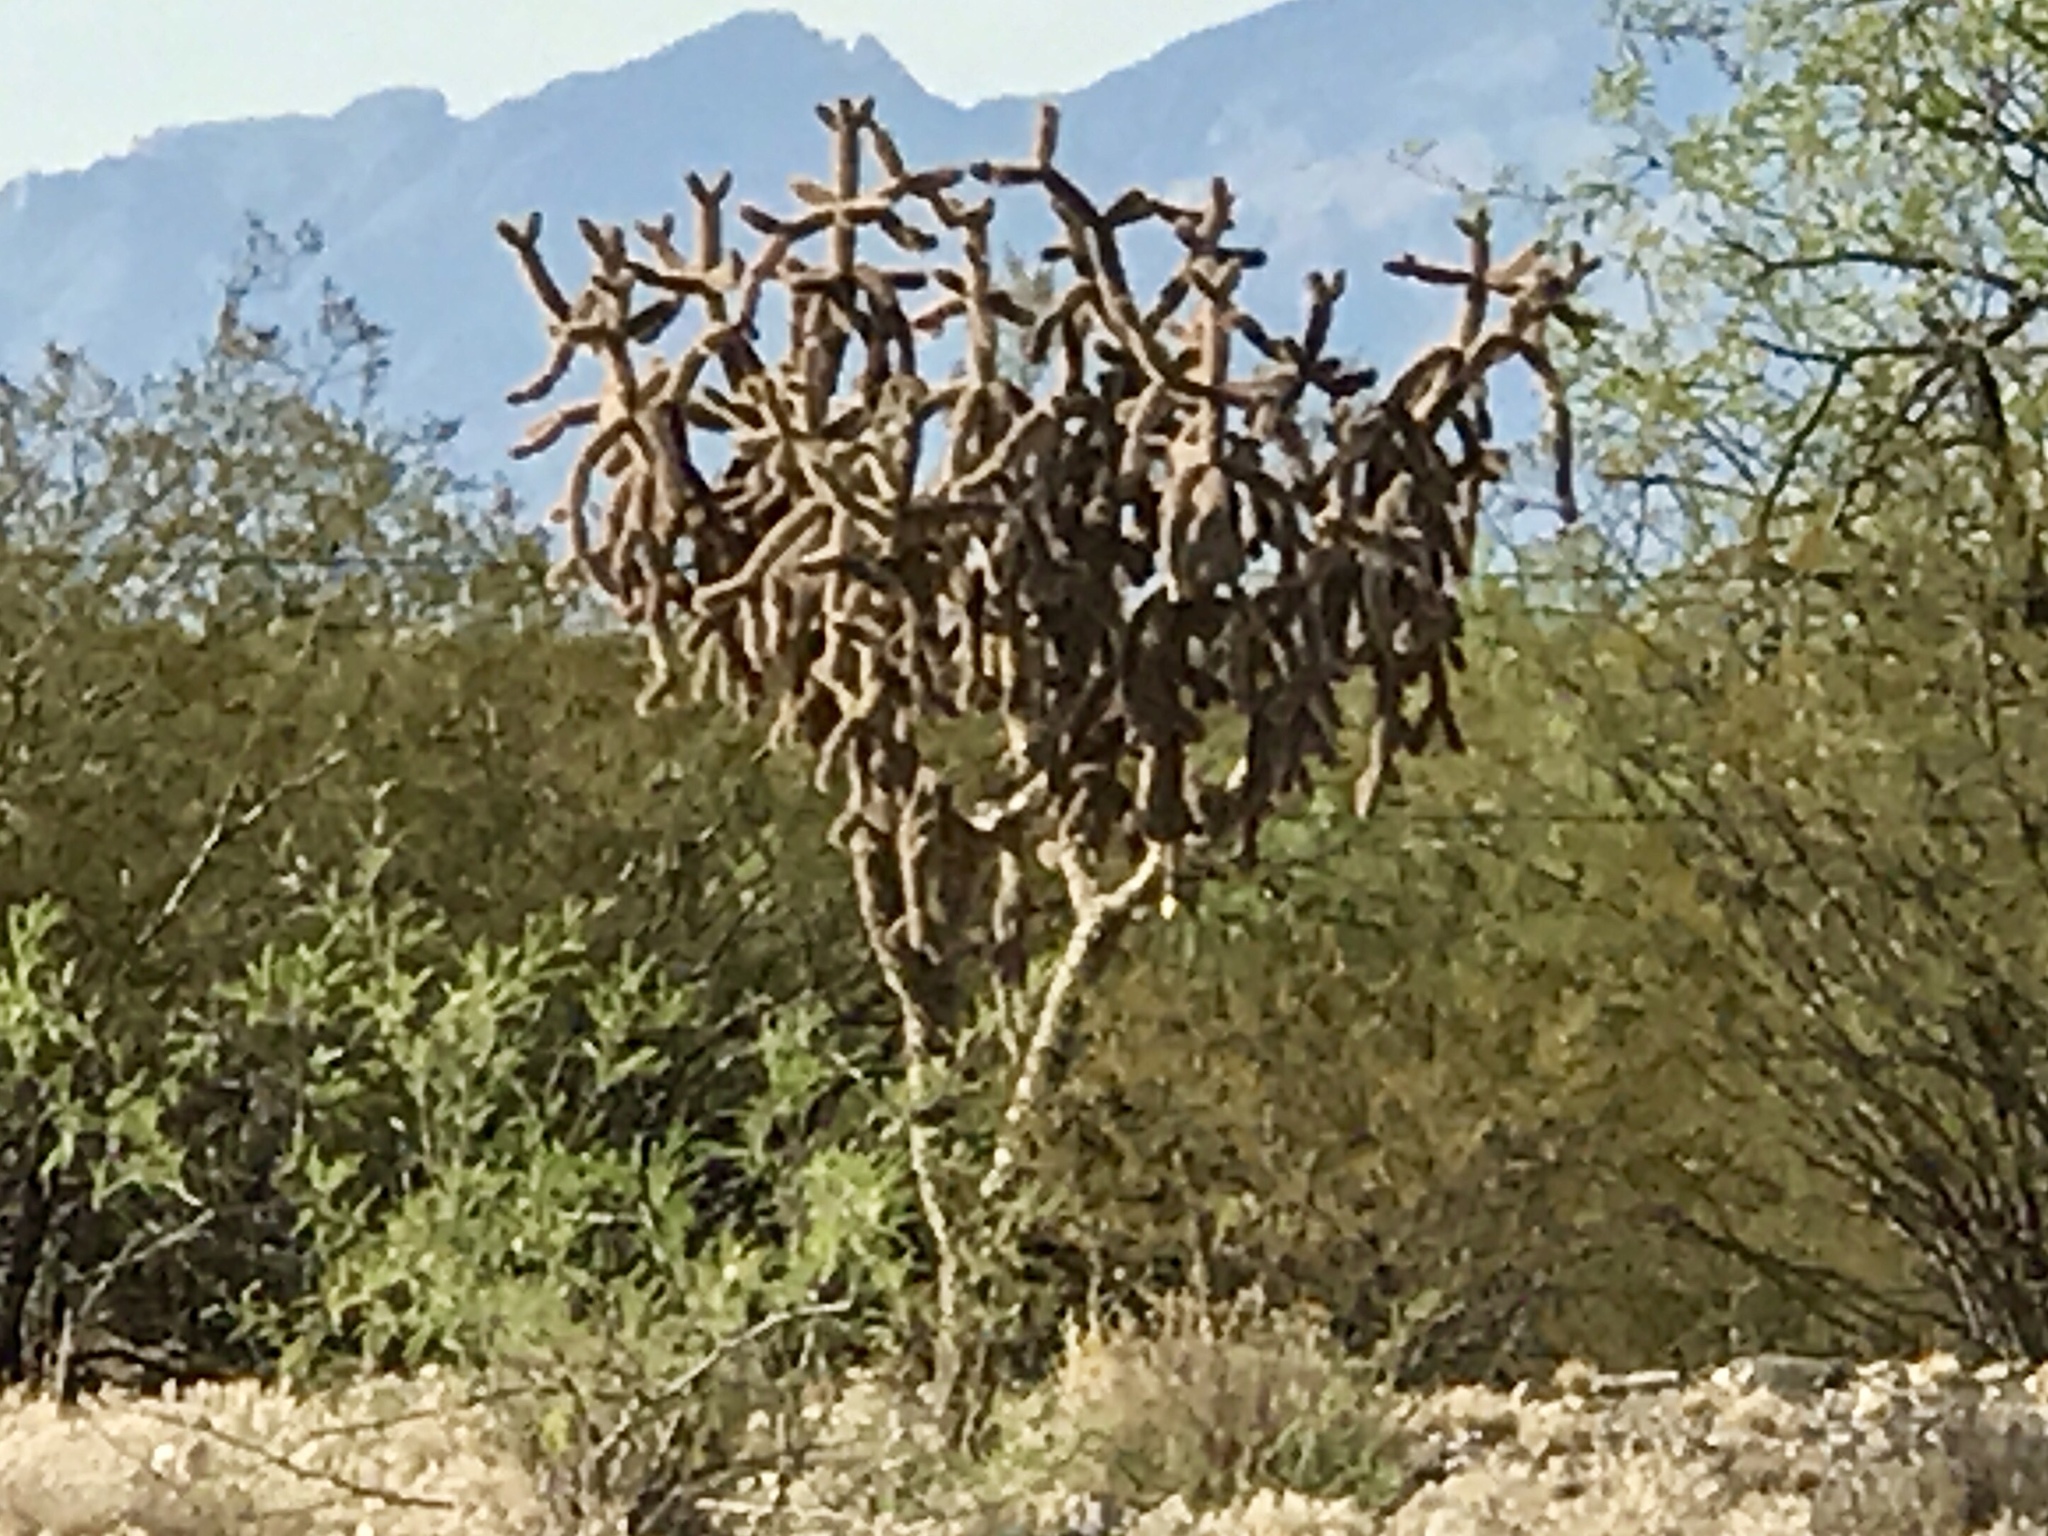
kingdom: Plantae
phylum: Tracheophyta
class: Magnoliopsida
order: Caryophyllales
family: Cactaceae
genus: Cylindropuntia
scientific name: Cylindropuntia imbricata
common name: Candelabrum cactus
